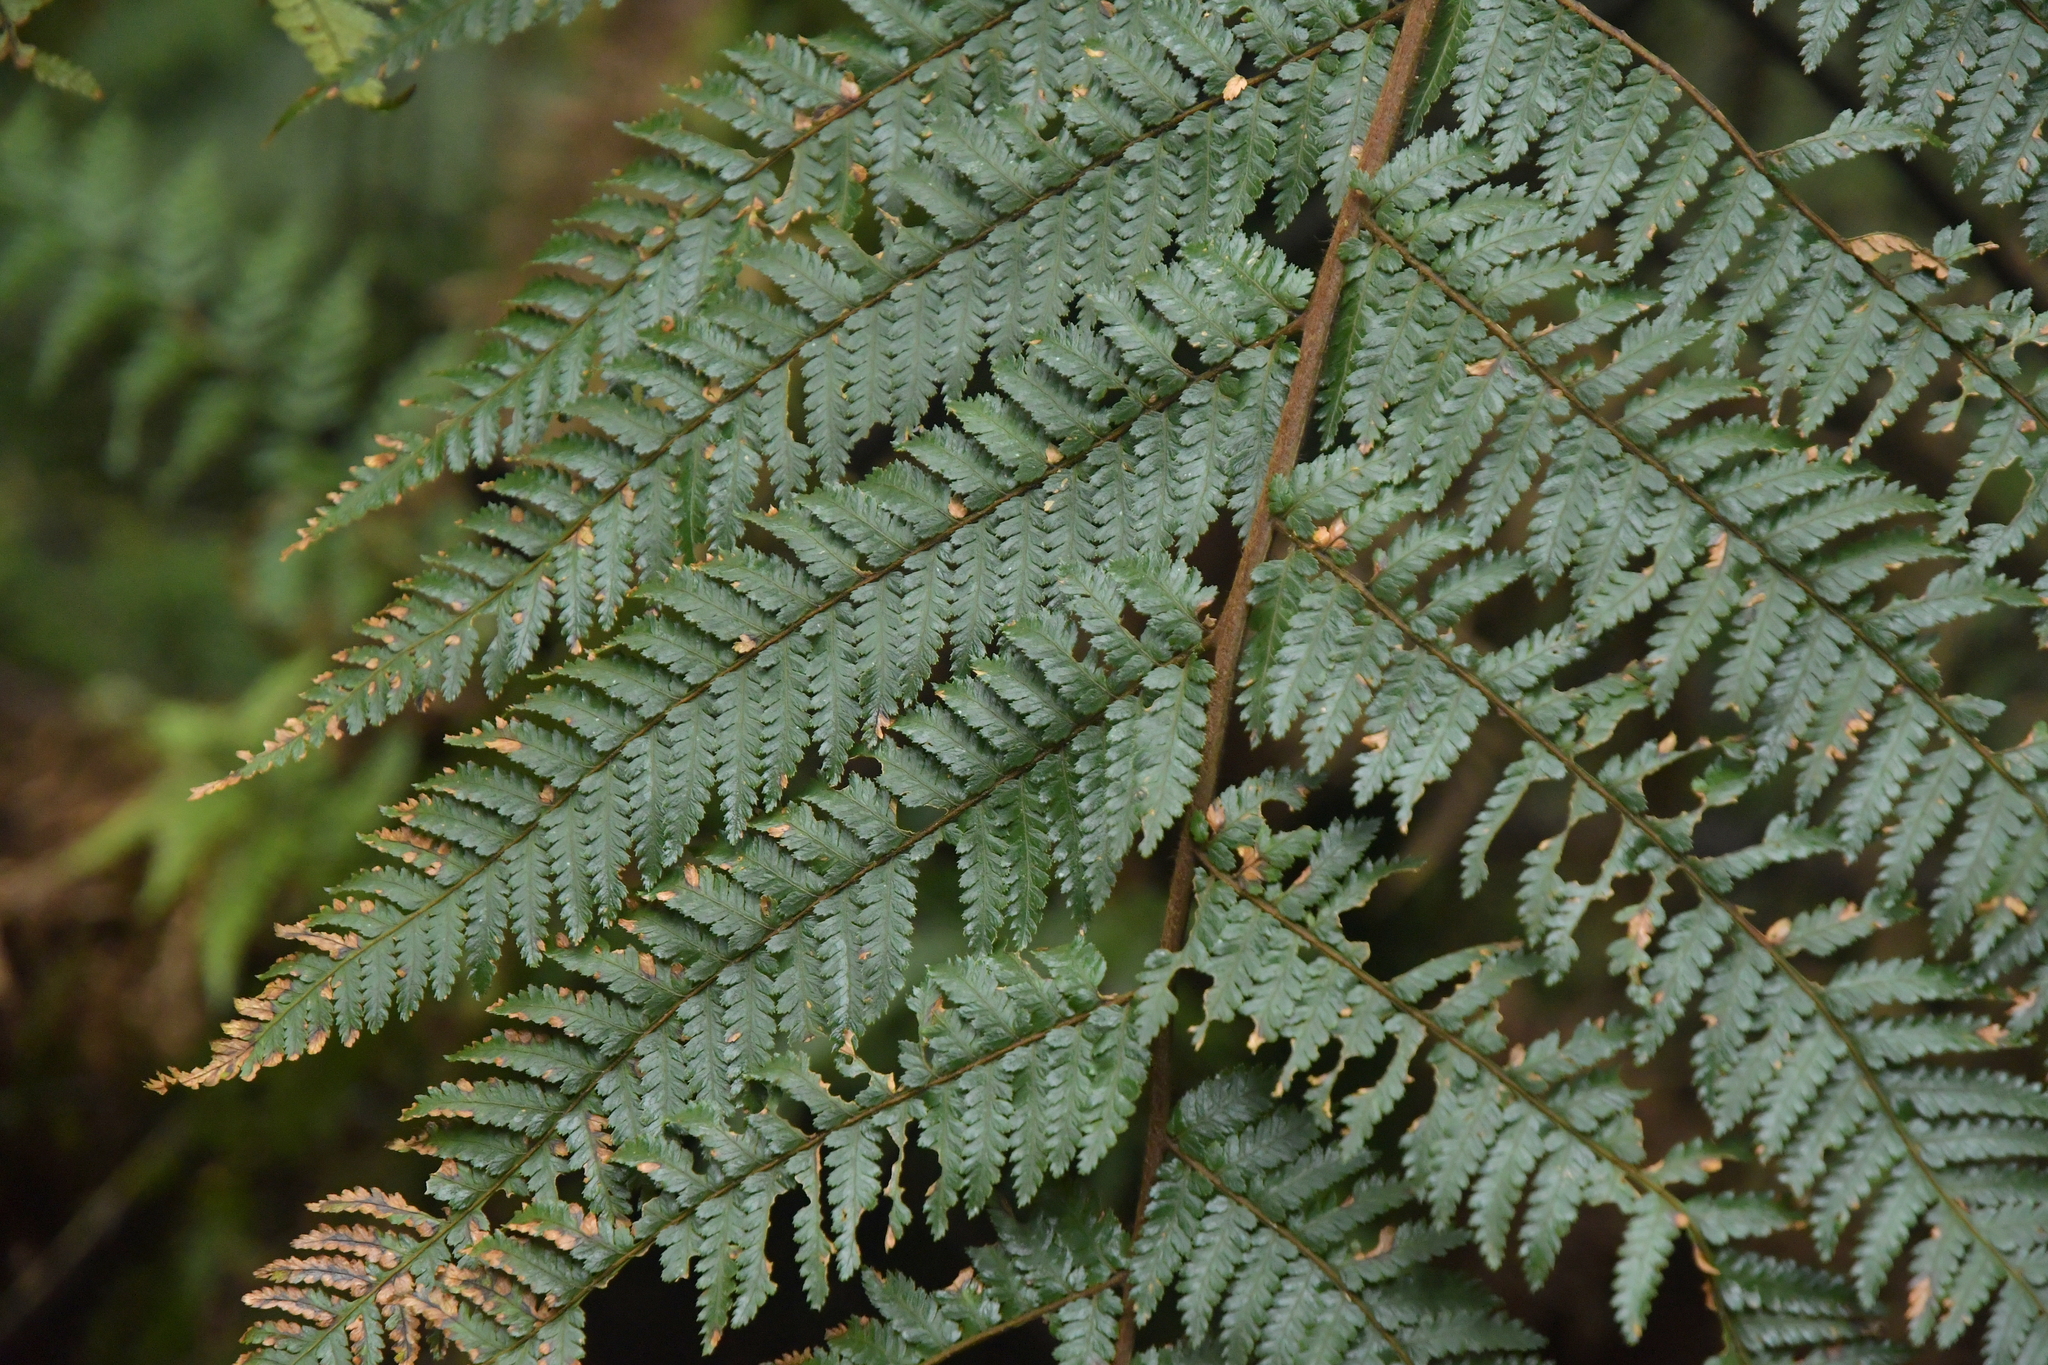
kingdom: Plantae
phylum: Tracheophyta
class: Polypodiopsida
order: Cyatheales
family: Dicksoniaceae
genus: Dicksonia
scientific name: Dicksonia squarrosa
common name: Hard treefern
